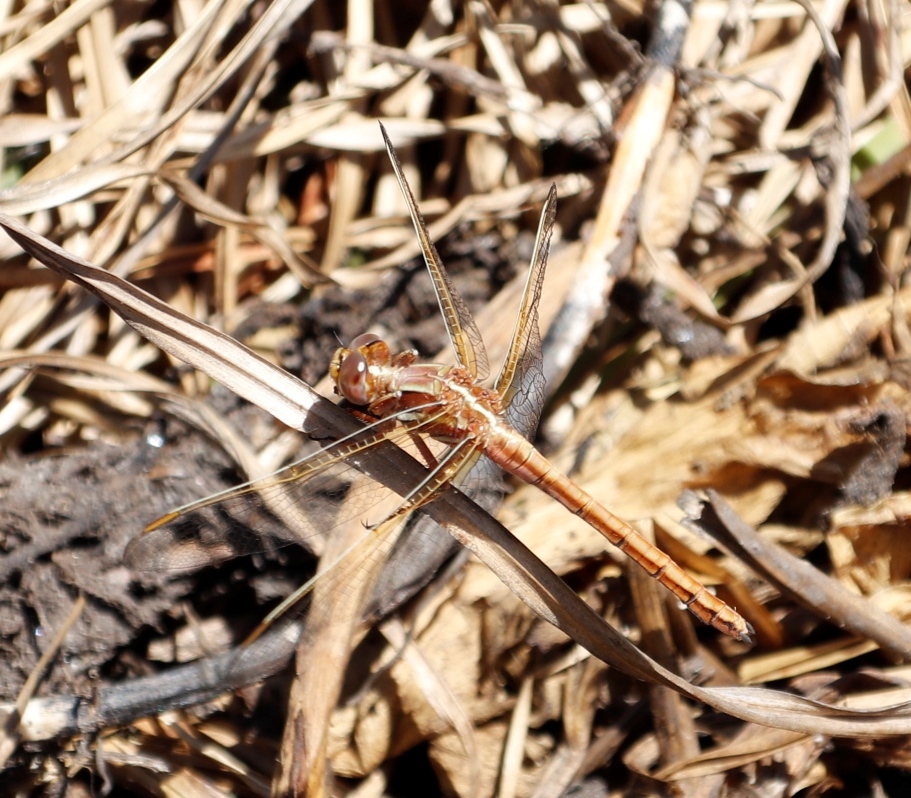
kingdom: Animalia
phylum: Arthropoda
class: Insecta
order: Odonata
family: Libellulidae
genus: Orthetrum
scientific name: Orthetrum caffrum
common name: Two-striped skimmer
